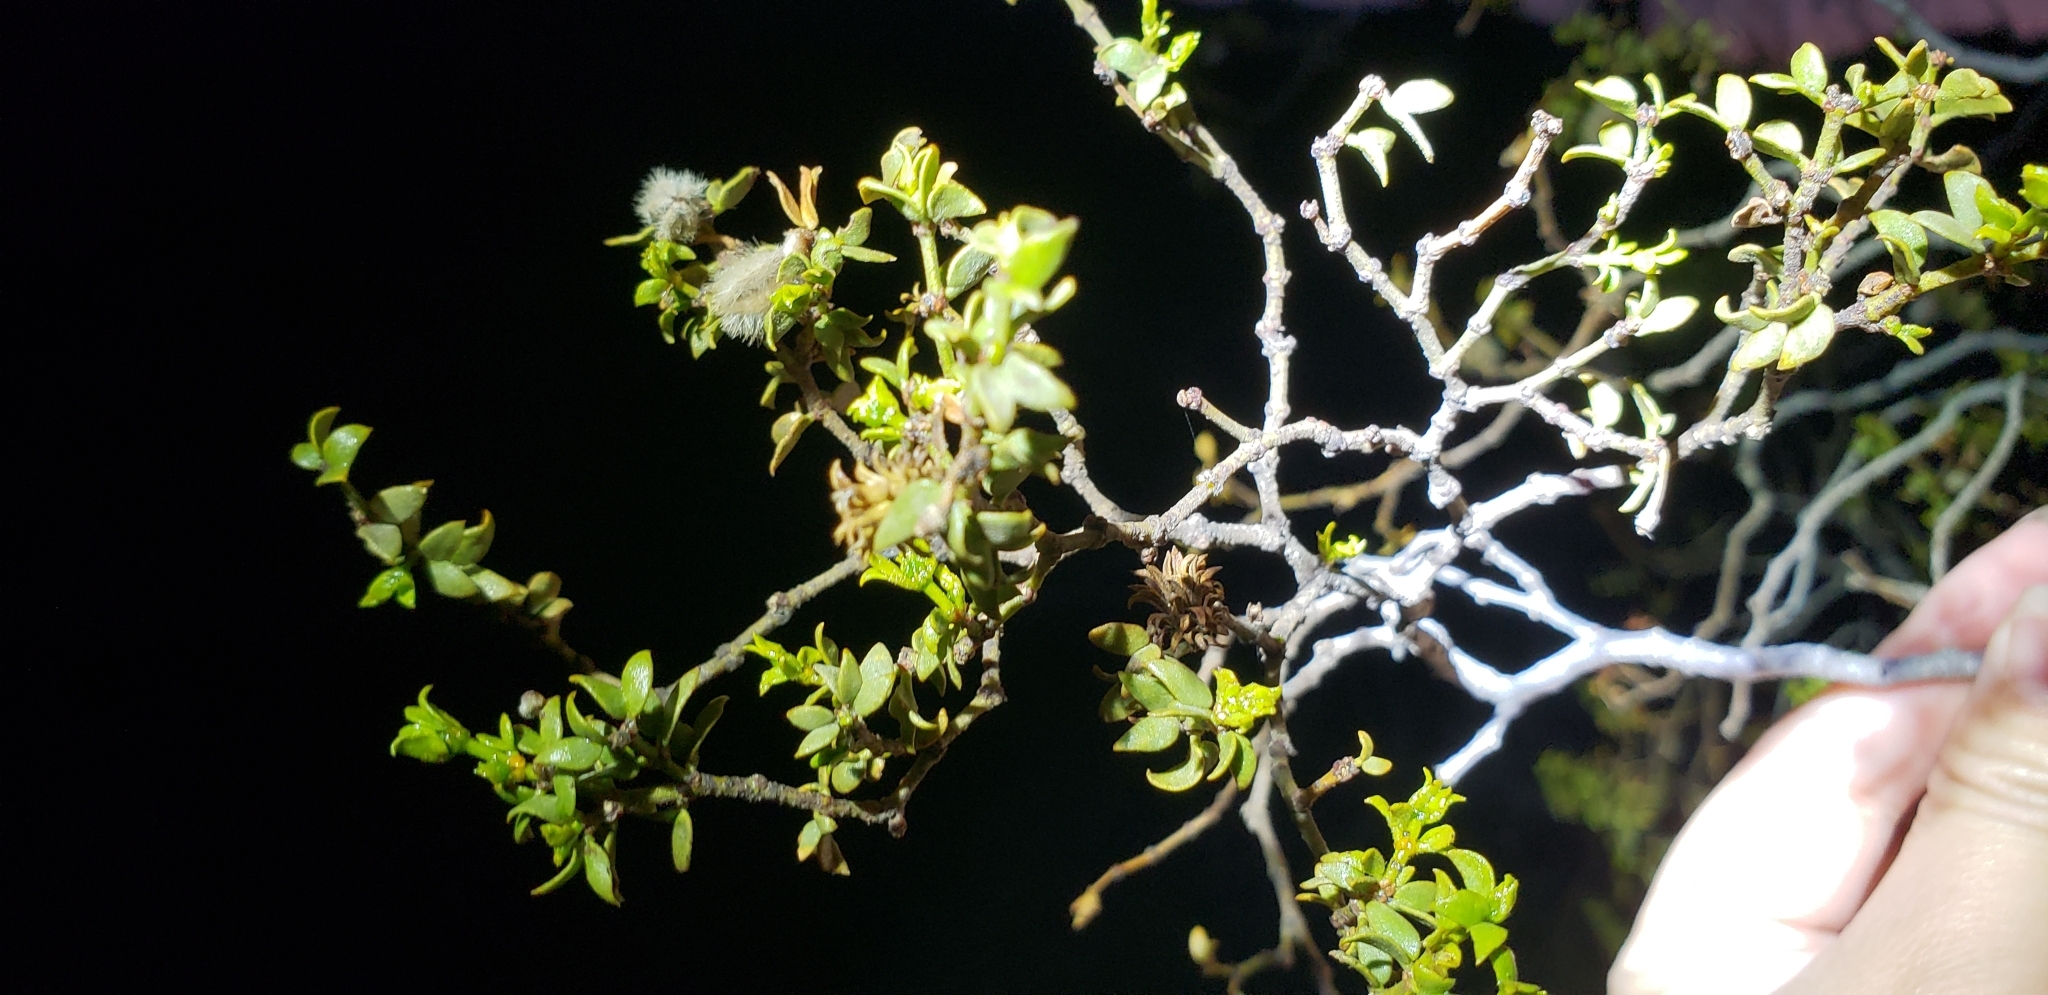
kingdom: Animalia
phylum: Arthropoda
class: Insecta
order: Diptera
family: Cecidomyiidae
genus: Asphondylia
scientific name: Asphondylia rosetta
